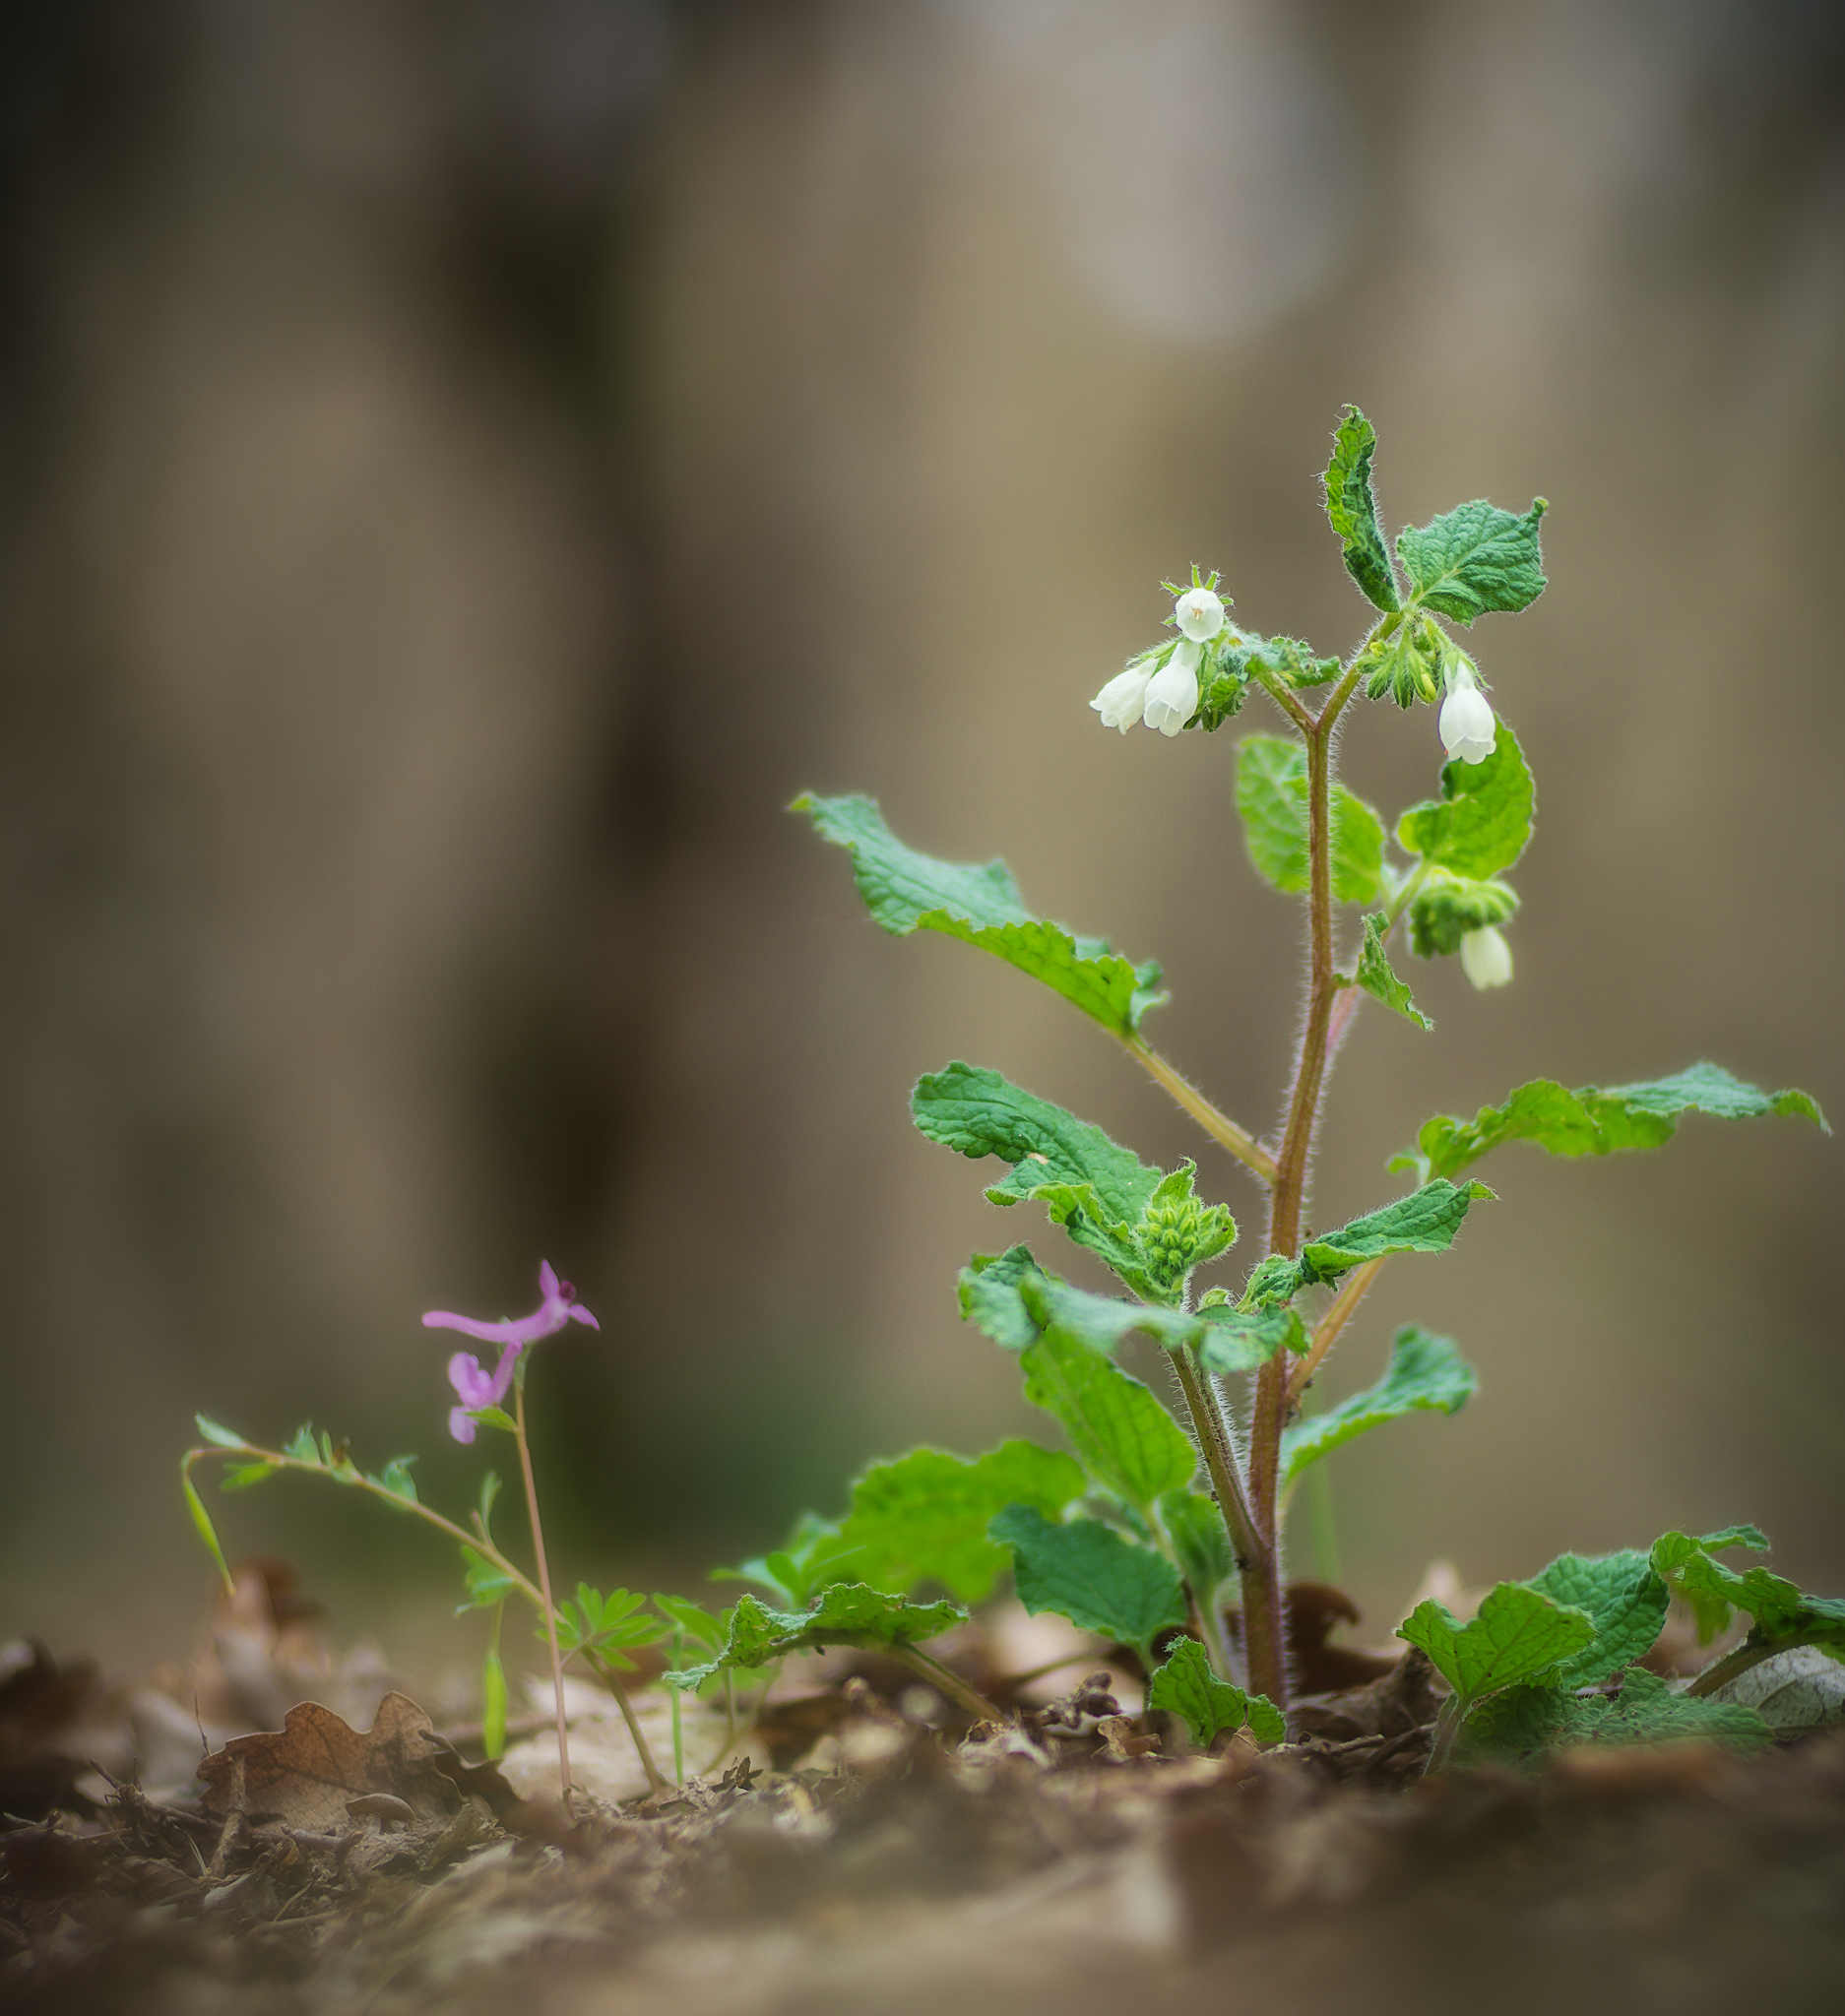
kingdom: Plantae
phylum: Tracheophyta
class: Magnoliopsida
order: Boraginales
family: Boraginaceae
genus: Symphytum
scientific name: Symphytum tauricum
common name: Crimean comfrey
